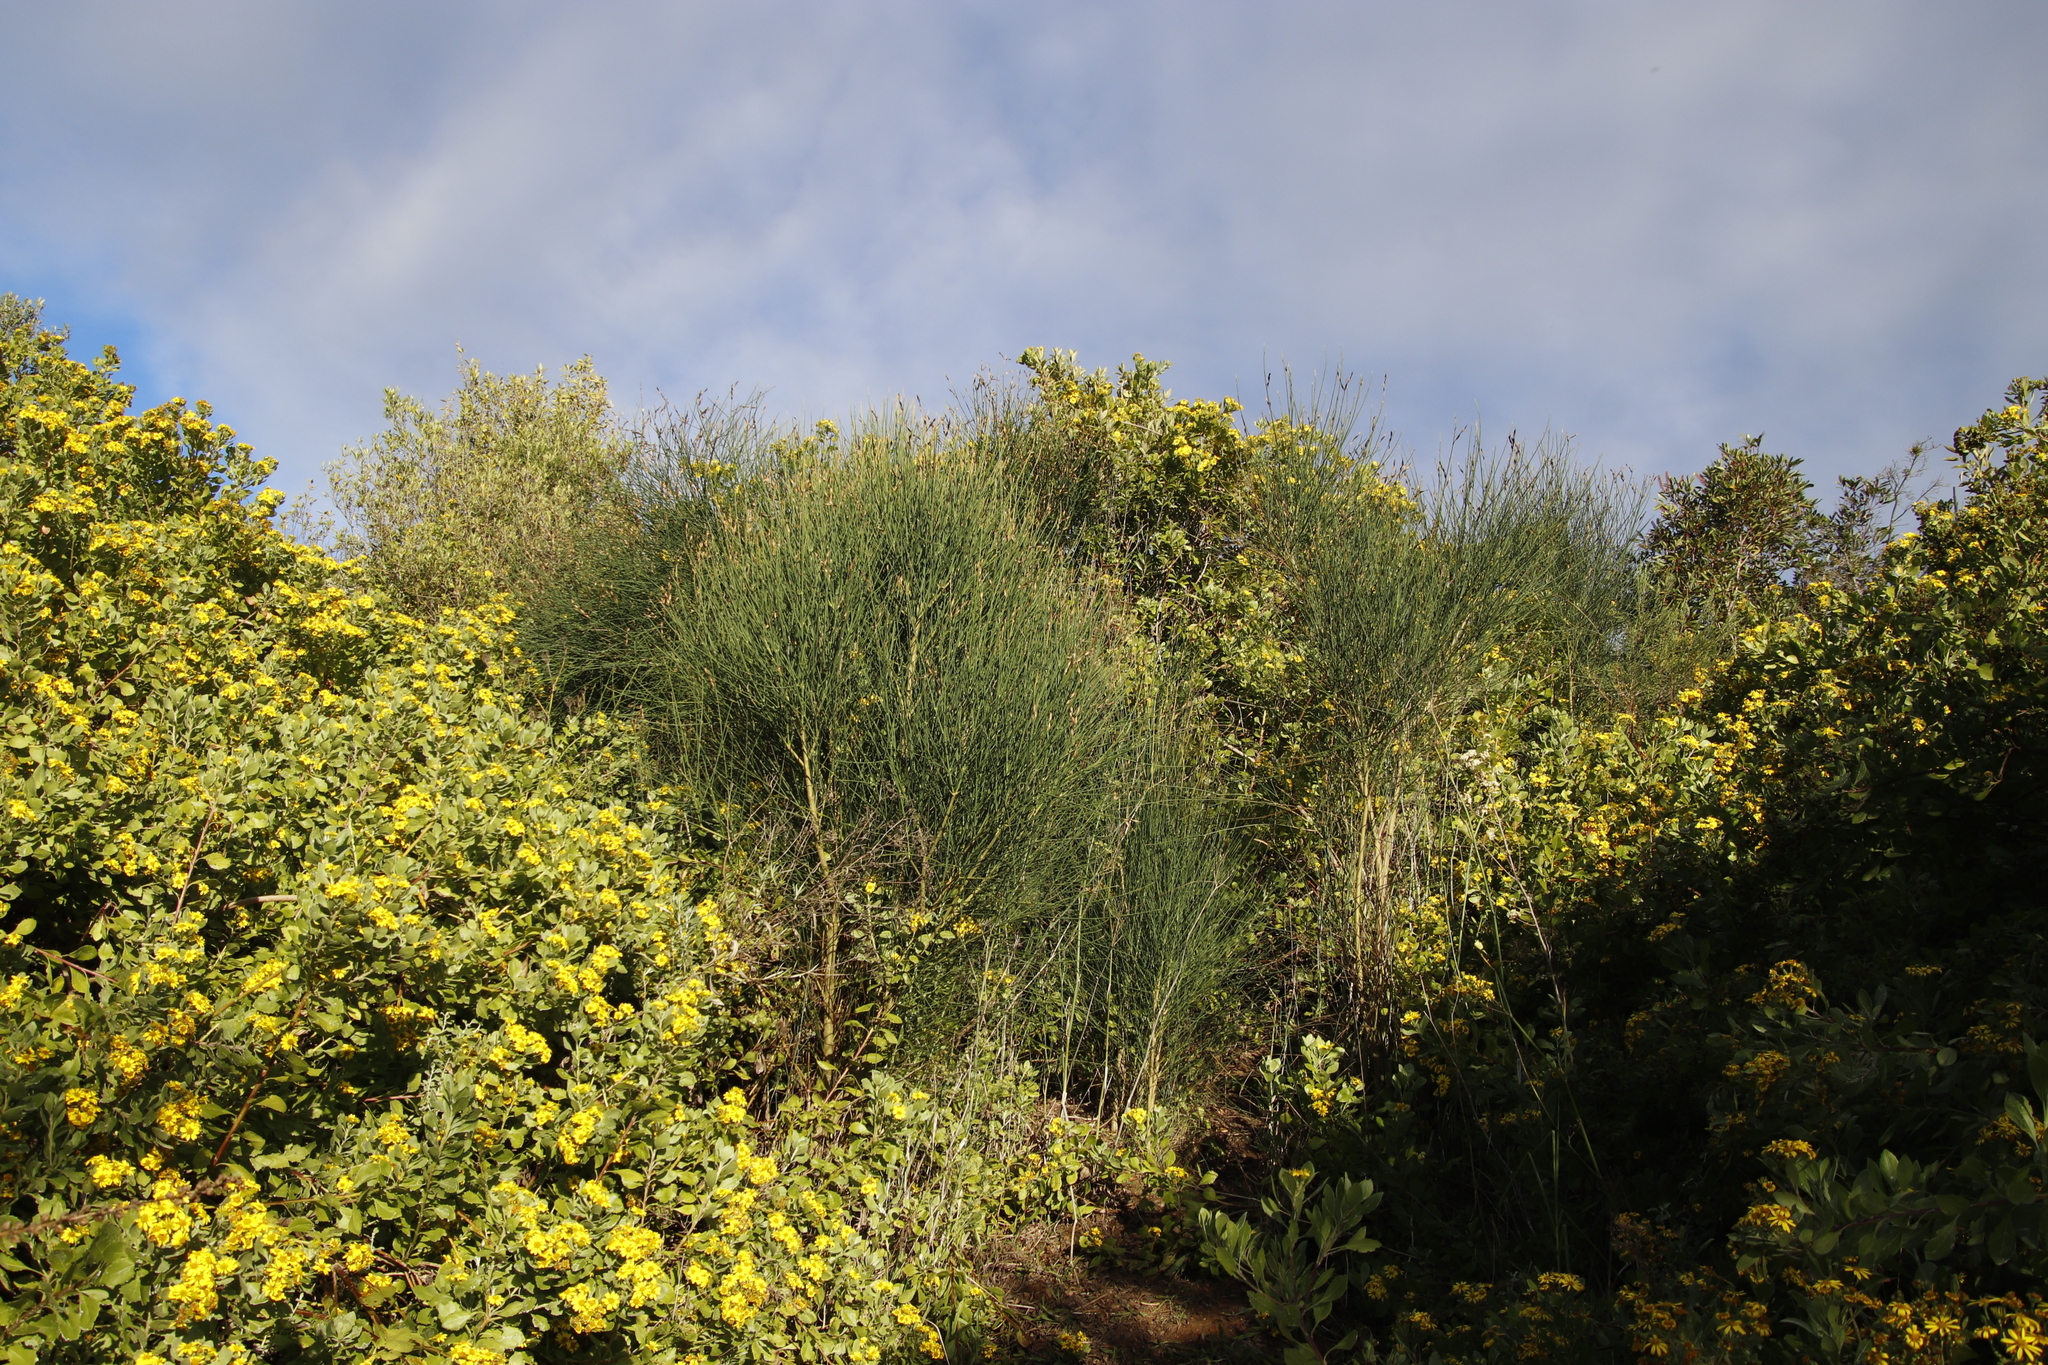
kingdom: Plantae
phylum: Tracheophyta
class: Magnoliopsida
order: Fabales
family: Fabaceae
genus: Spartium
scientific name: Spartium junceum
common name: Spanish broom
